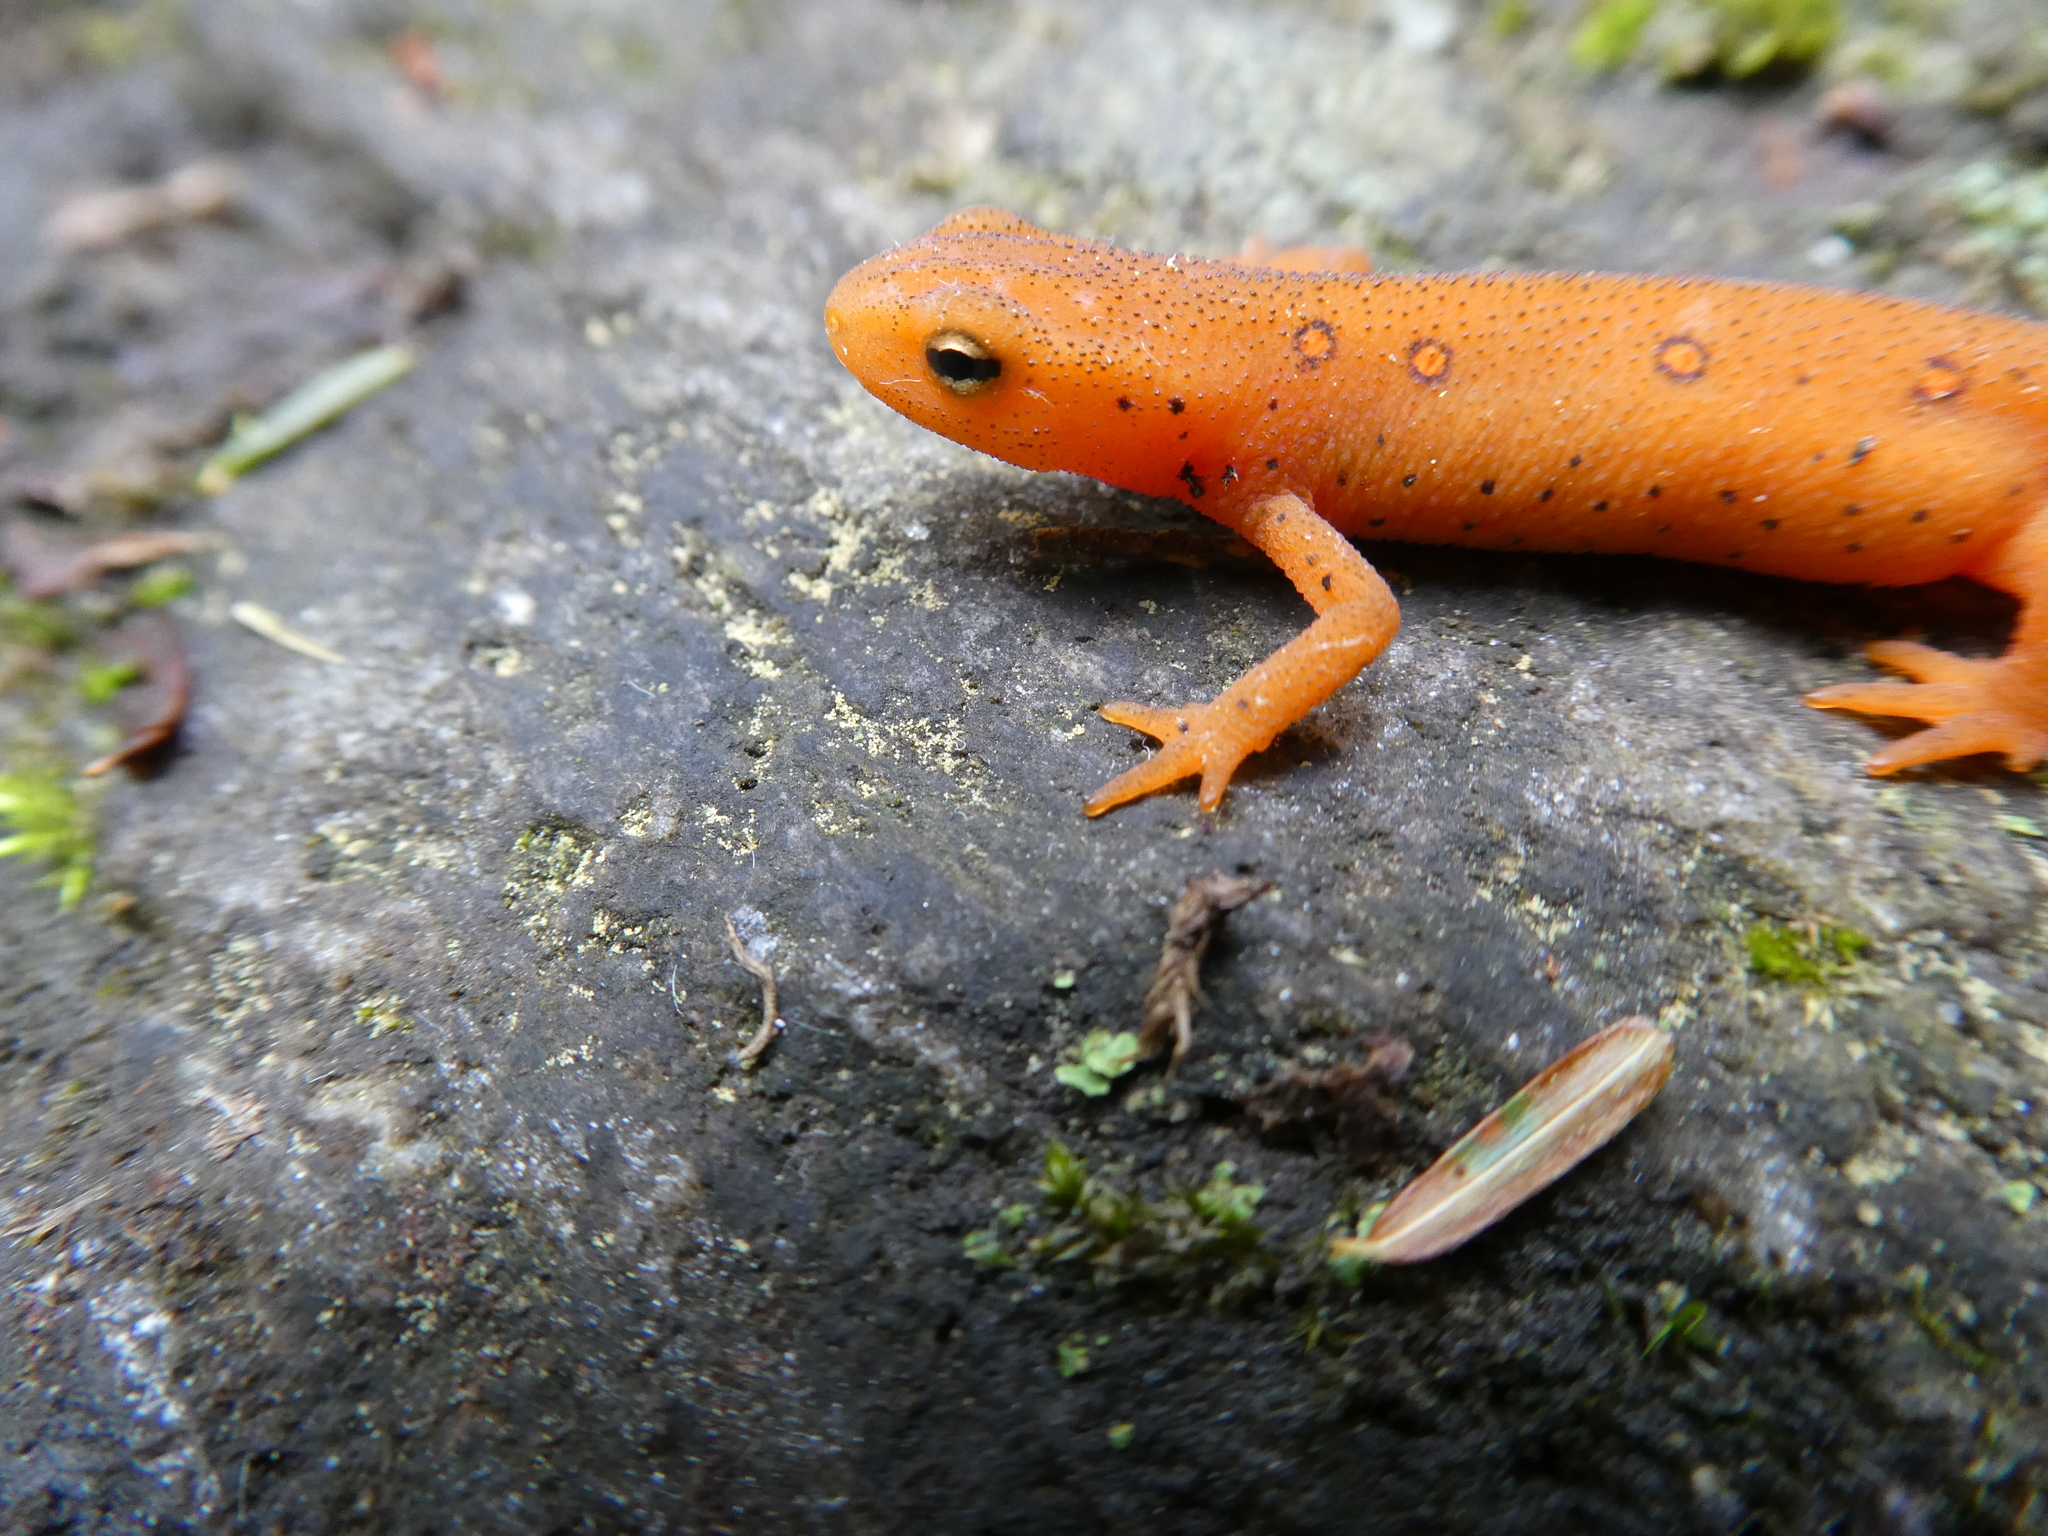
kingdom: Animalia
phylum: Chordata
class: Amphibia
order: Caudata
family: Salamandridae
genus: Notophthalmus
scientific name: Notophthalmus viridescens
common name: Eastern newt
